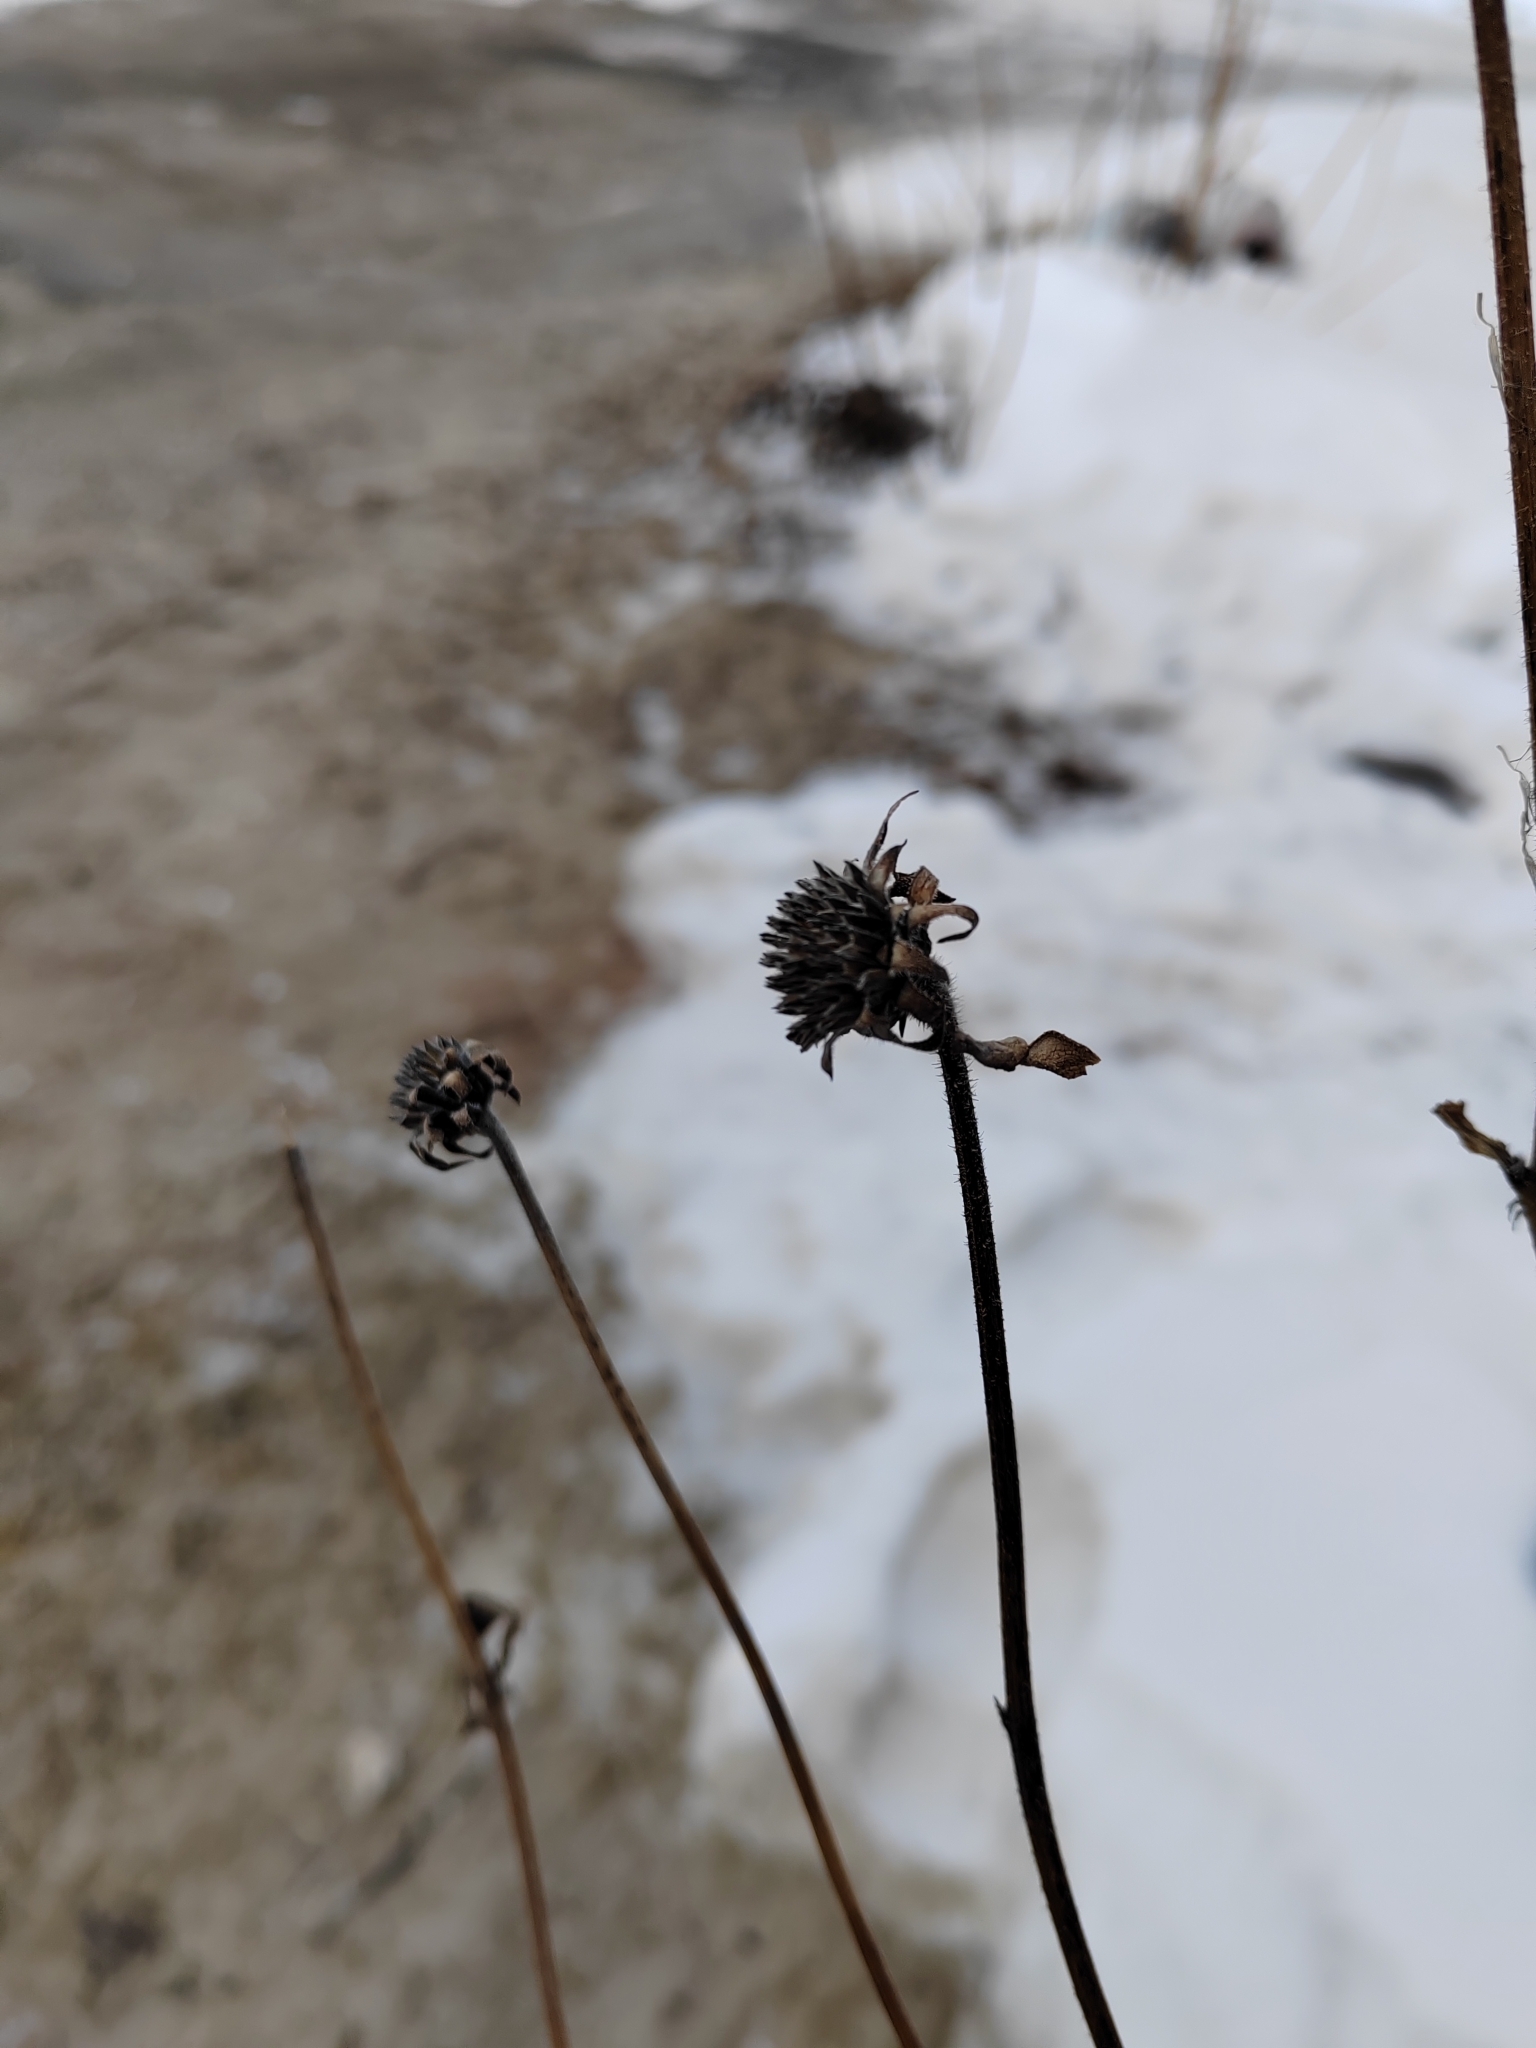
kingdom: Plantae
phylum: Tracheophyta
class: Magnoliopsida
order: Asterales
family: Asteraceae
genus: Helianthus
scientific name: Helianthus tuberosus
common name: Jerusalem artichoke
